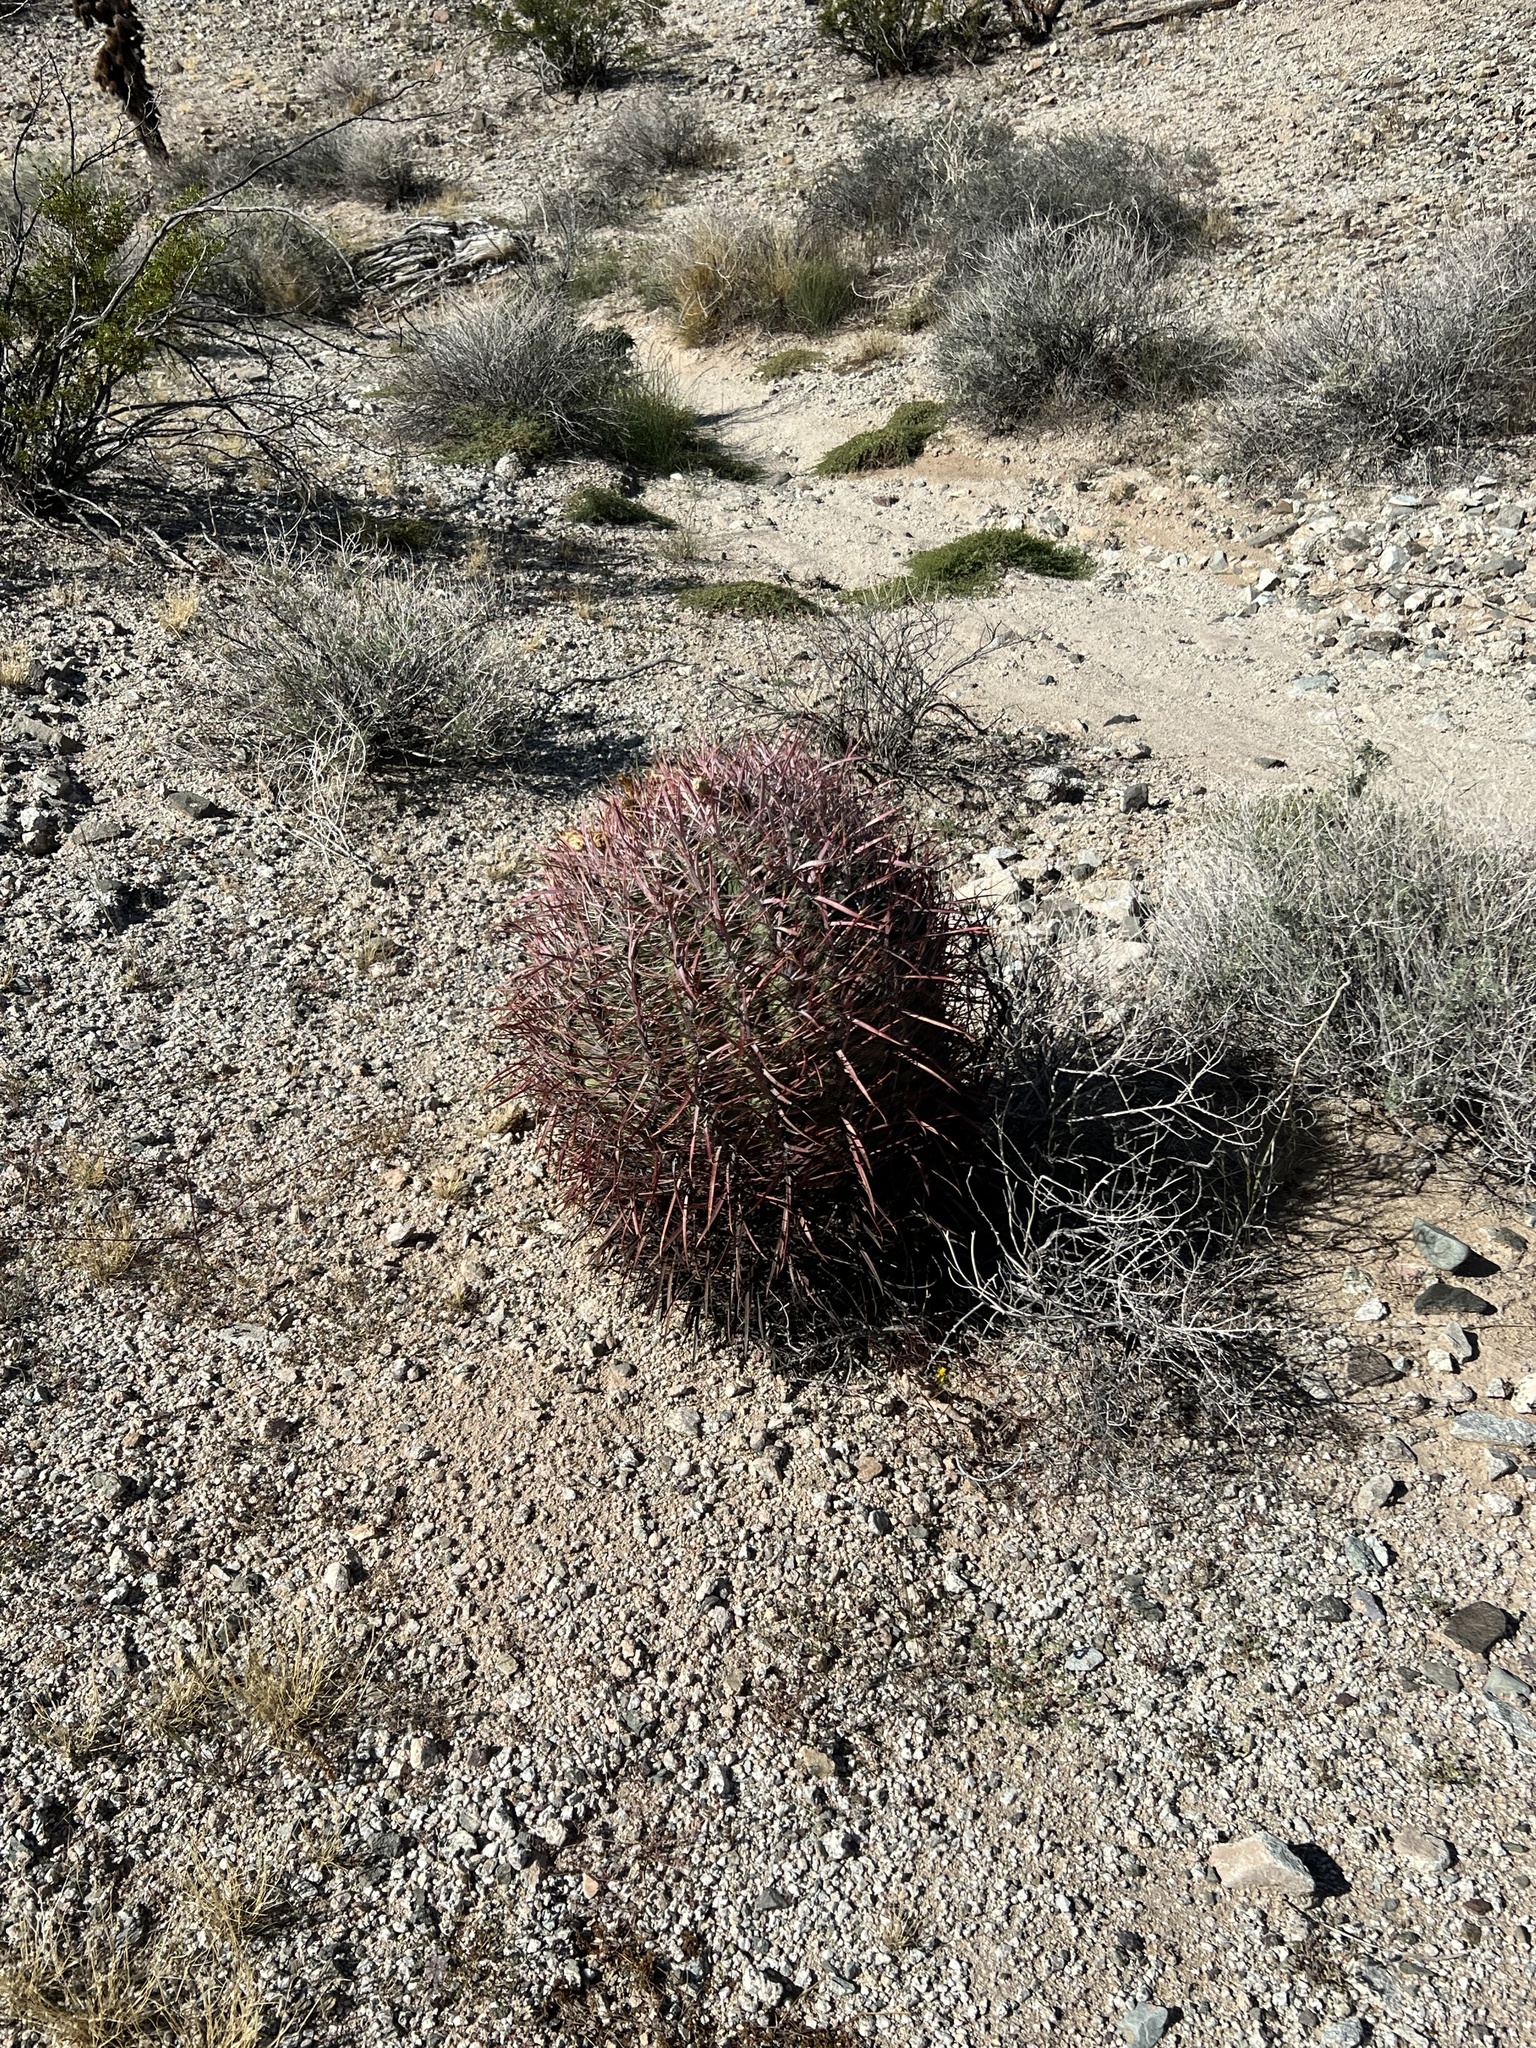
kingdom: Plantae
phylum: Tracheophyta
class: Magnoliopsida
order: Caryophyllales
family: Cactaceae
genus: Ferocactus
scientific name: Ferocactus cylindraceus
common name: California barrel cactus
